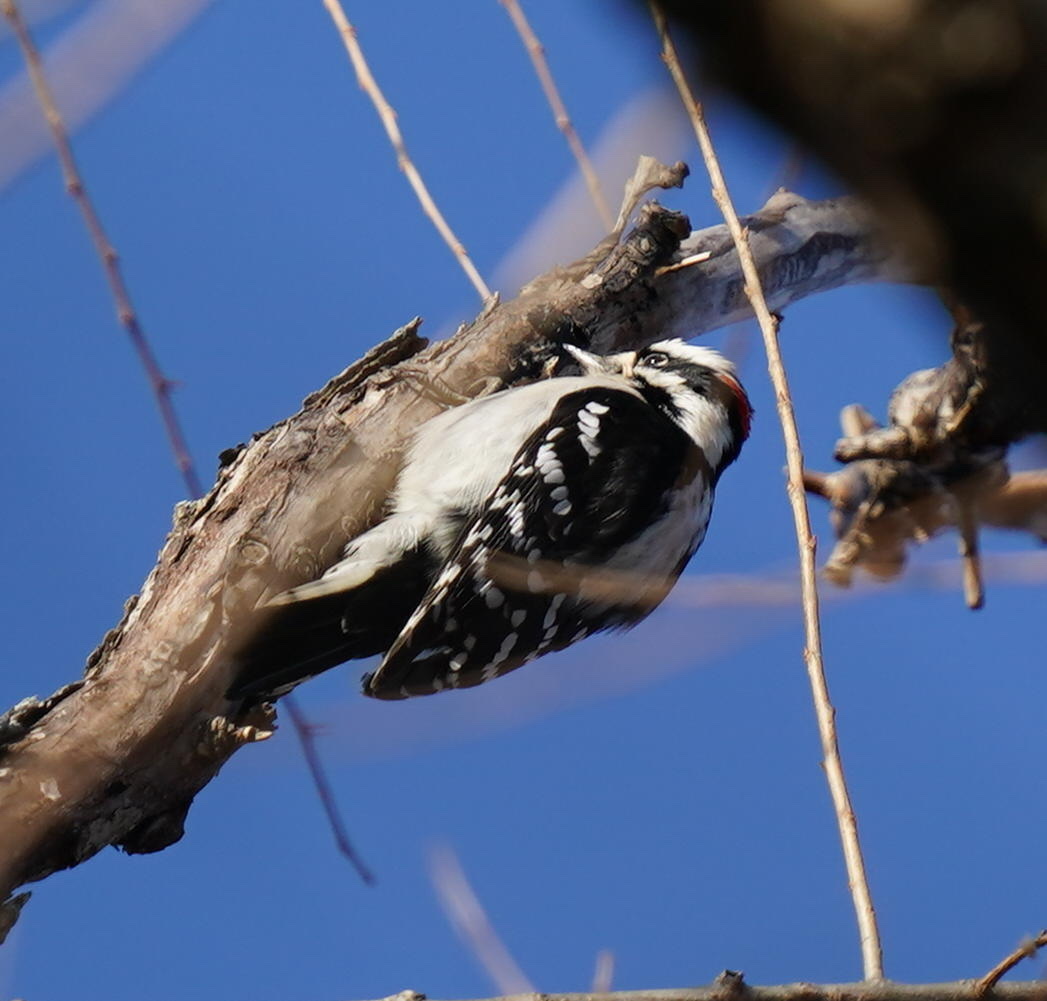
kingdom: Animalia
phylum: Chordata
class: Aves
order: Piciformes
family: Picidae
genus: Dryobates
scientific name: Dryobates pubescens
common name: Downy woodpecker
